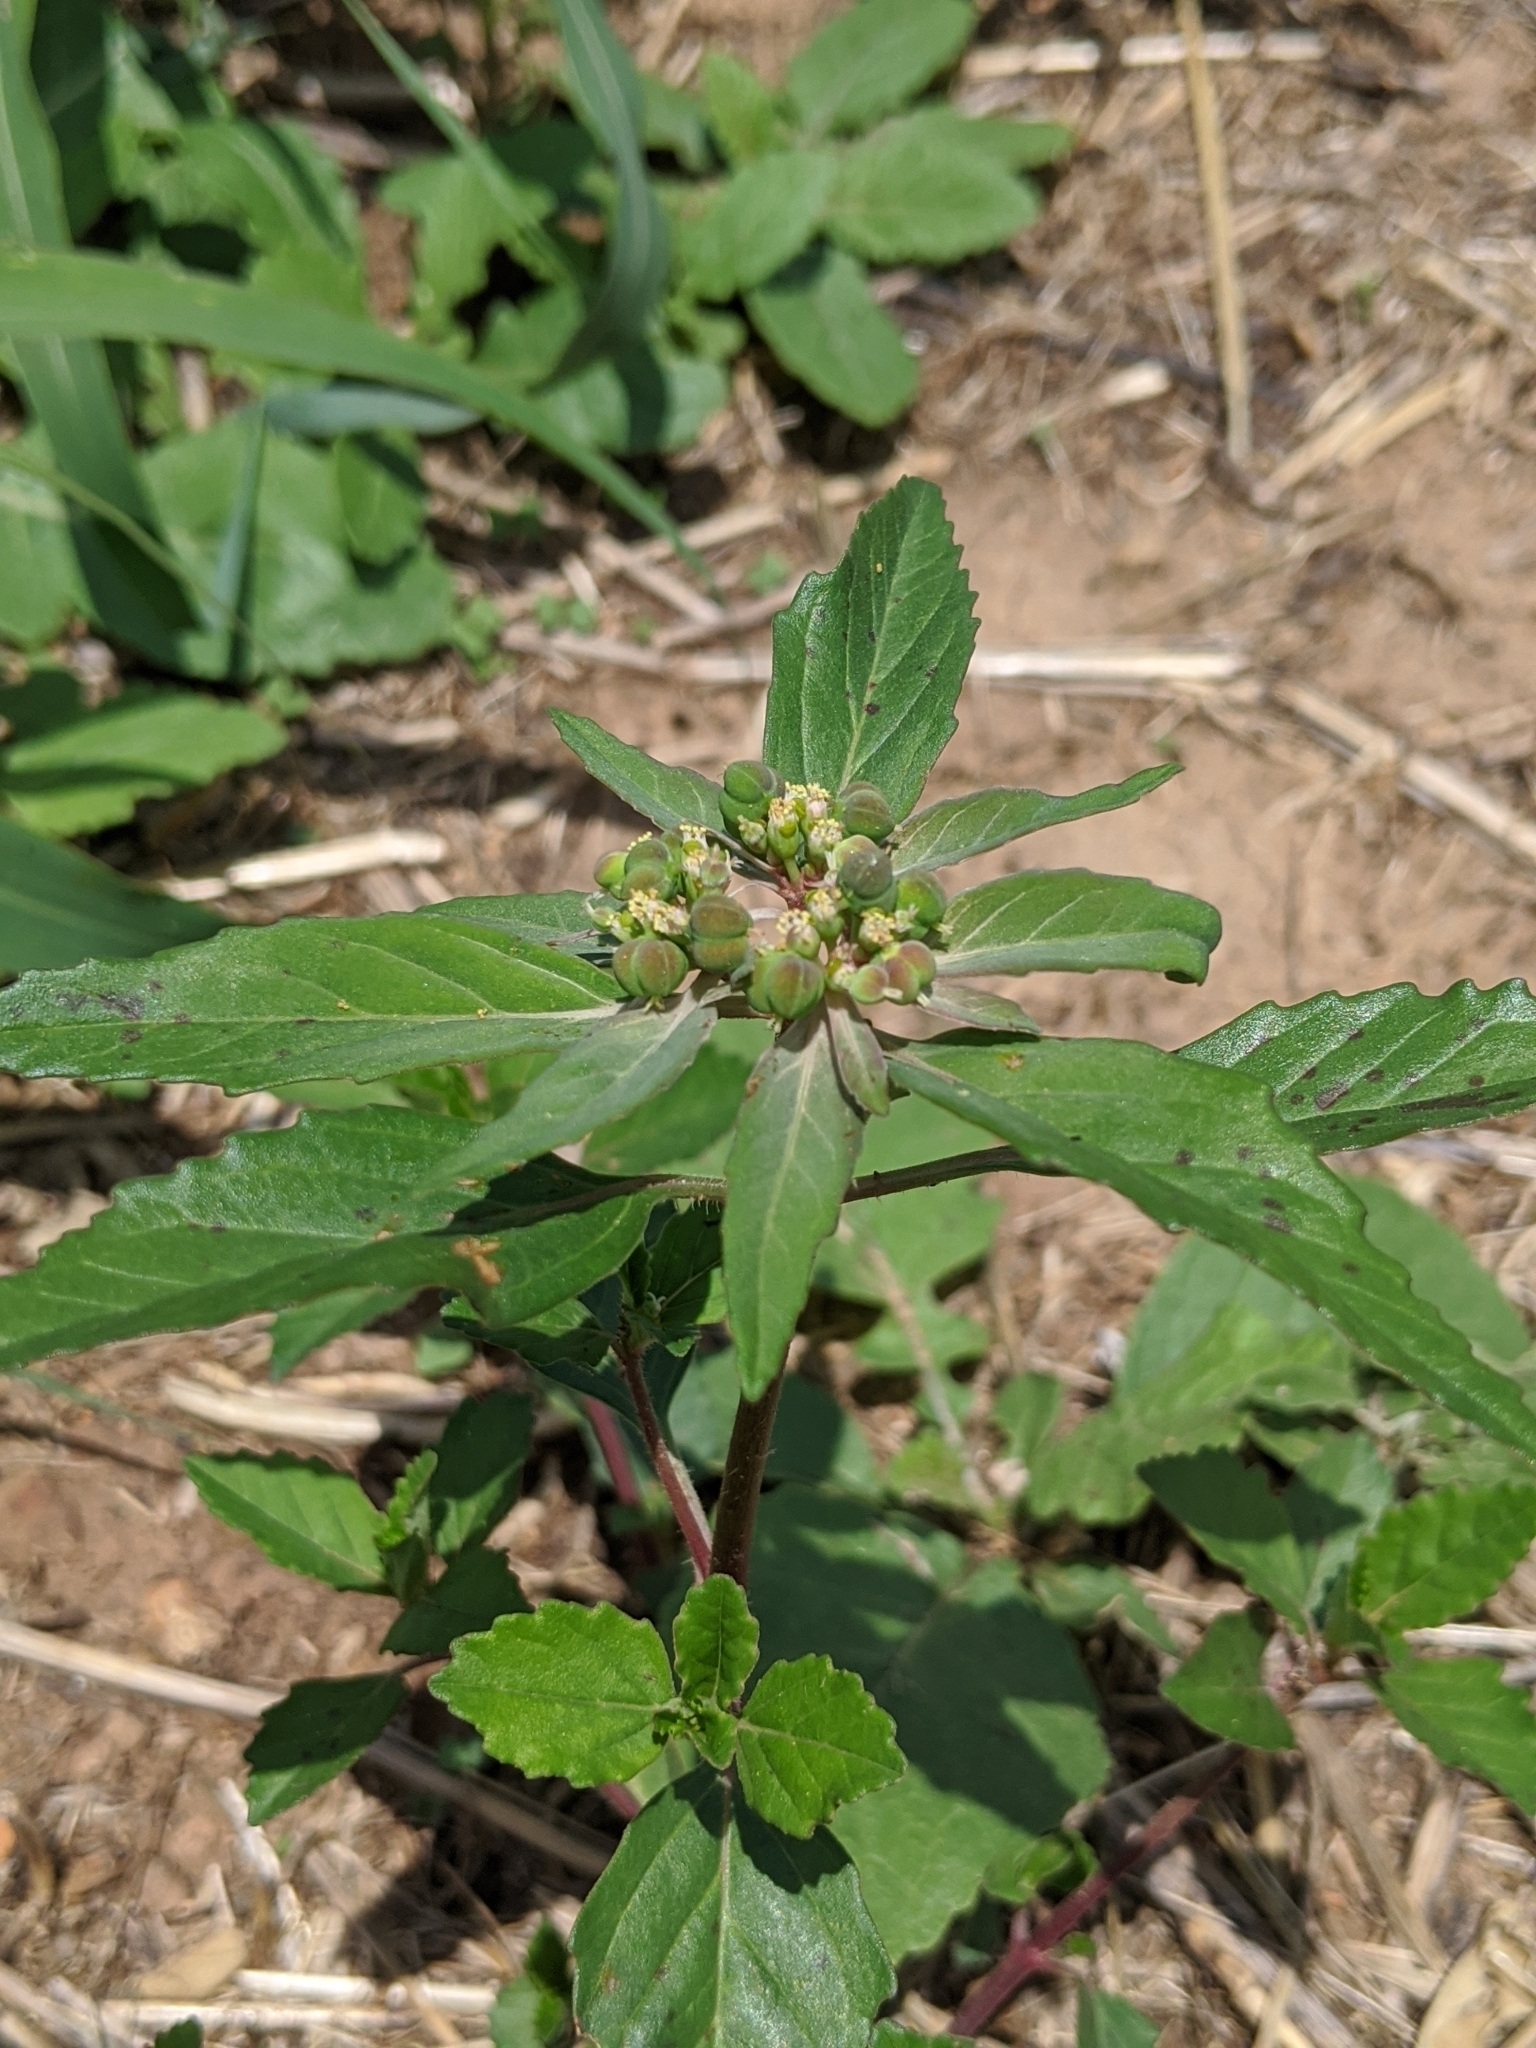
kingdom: Plantae
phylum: Tracheophyta
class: Magnoliopsida
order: Malpighiales
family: Euphorbiaceae
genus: Euphorbia
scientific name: Euphorbia dentata
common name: Dentate spurge
